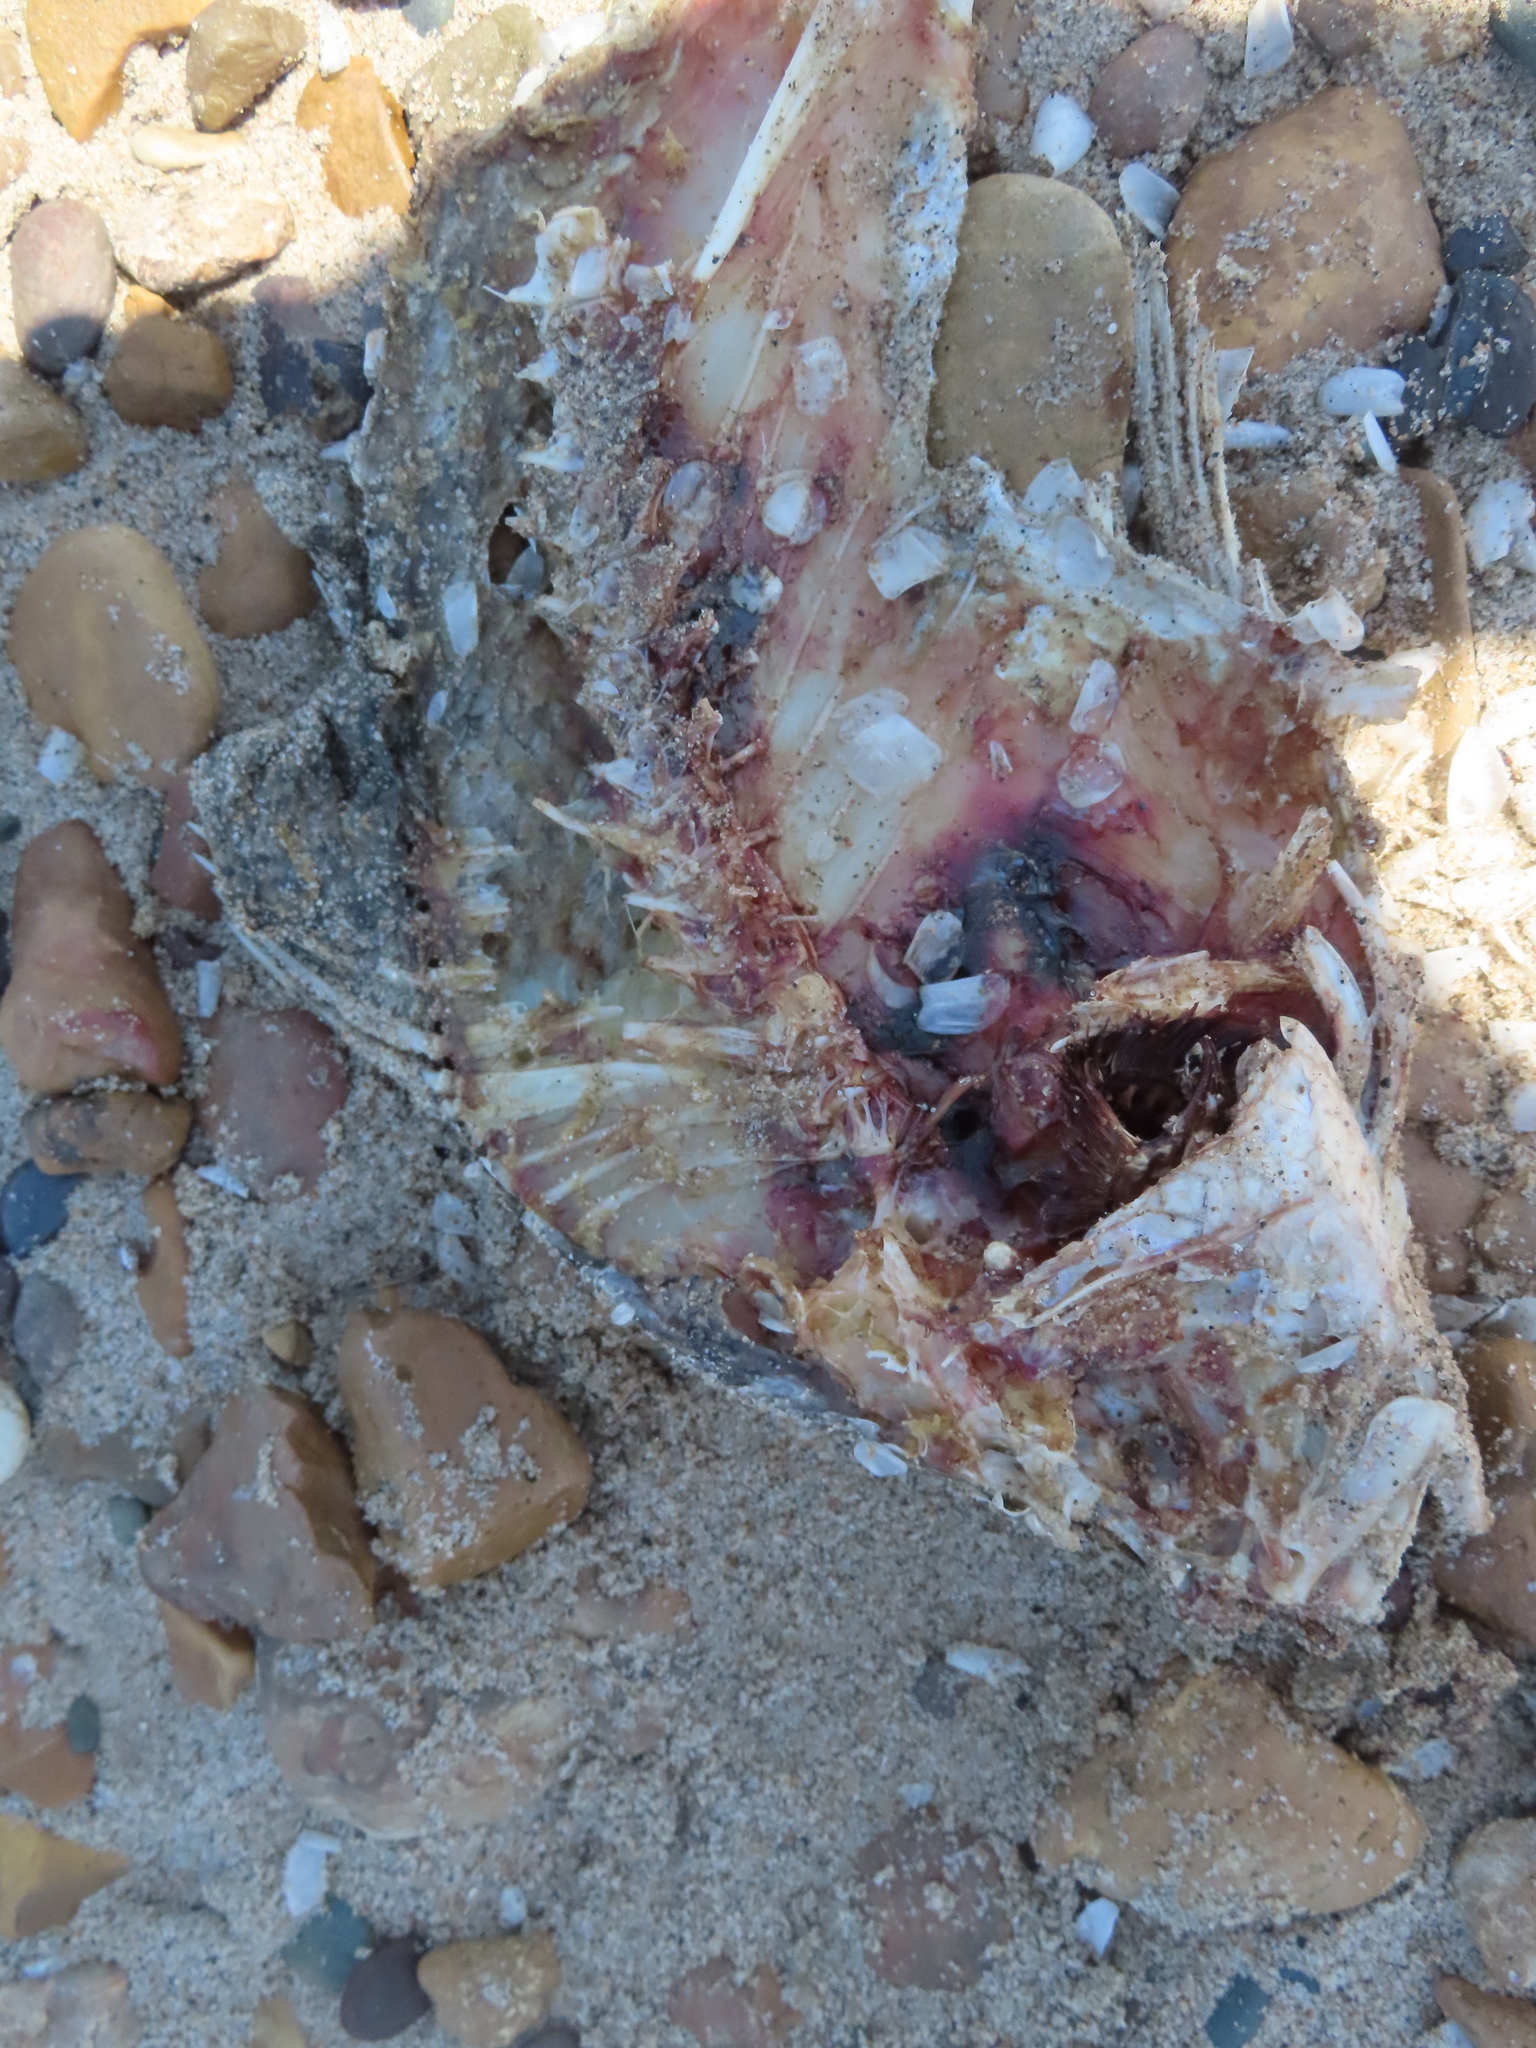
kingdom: Animalia
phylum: Chordata
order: Perciformes
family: Sciaenidae
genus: Aplodinotus
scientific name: Aplodinotus grunniens
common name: Freshwater drum
